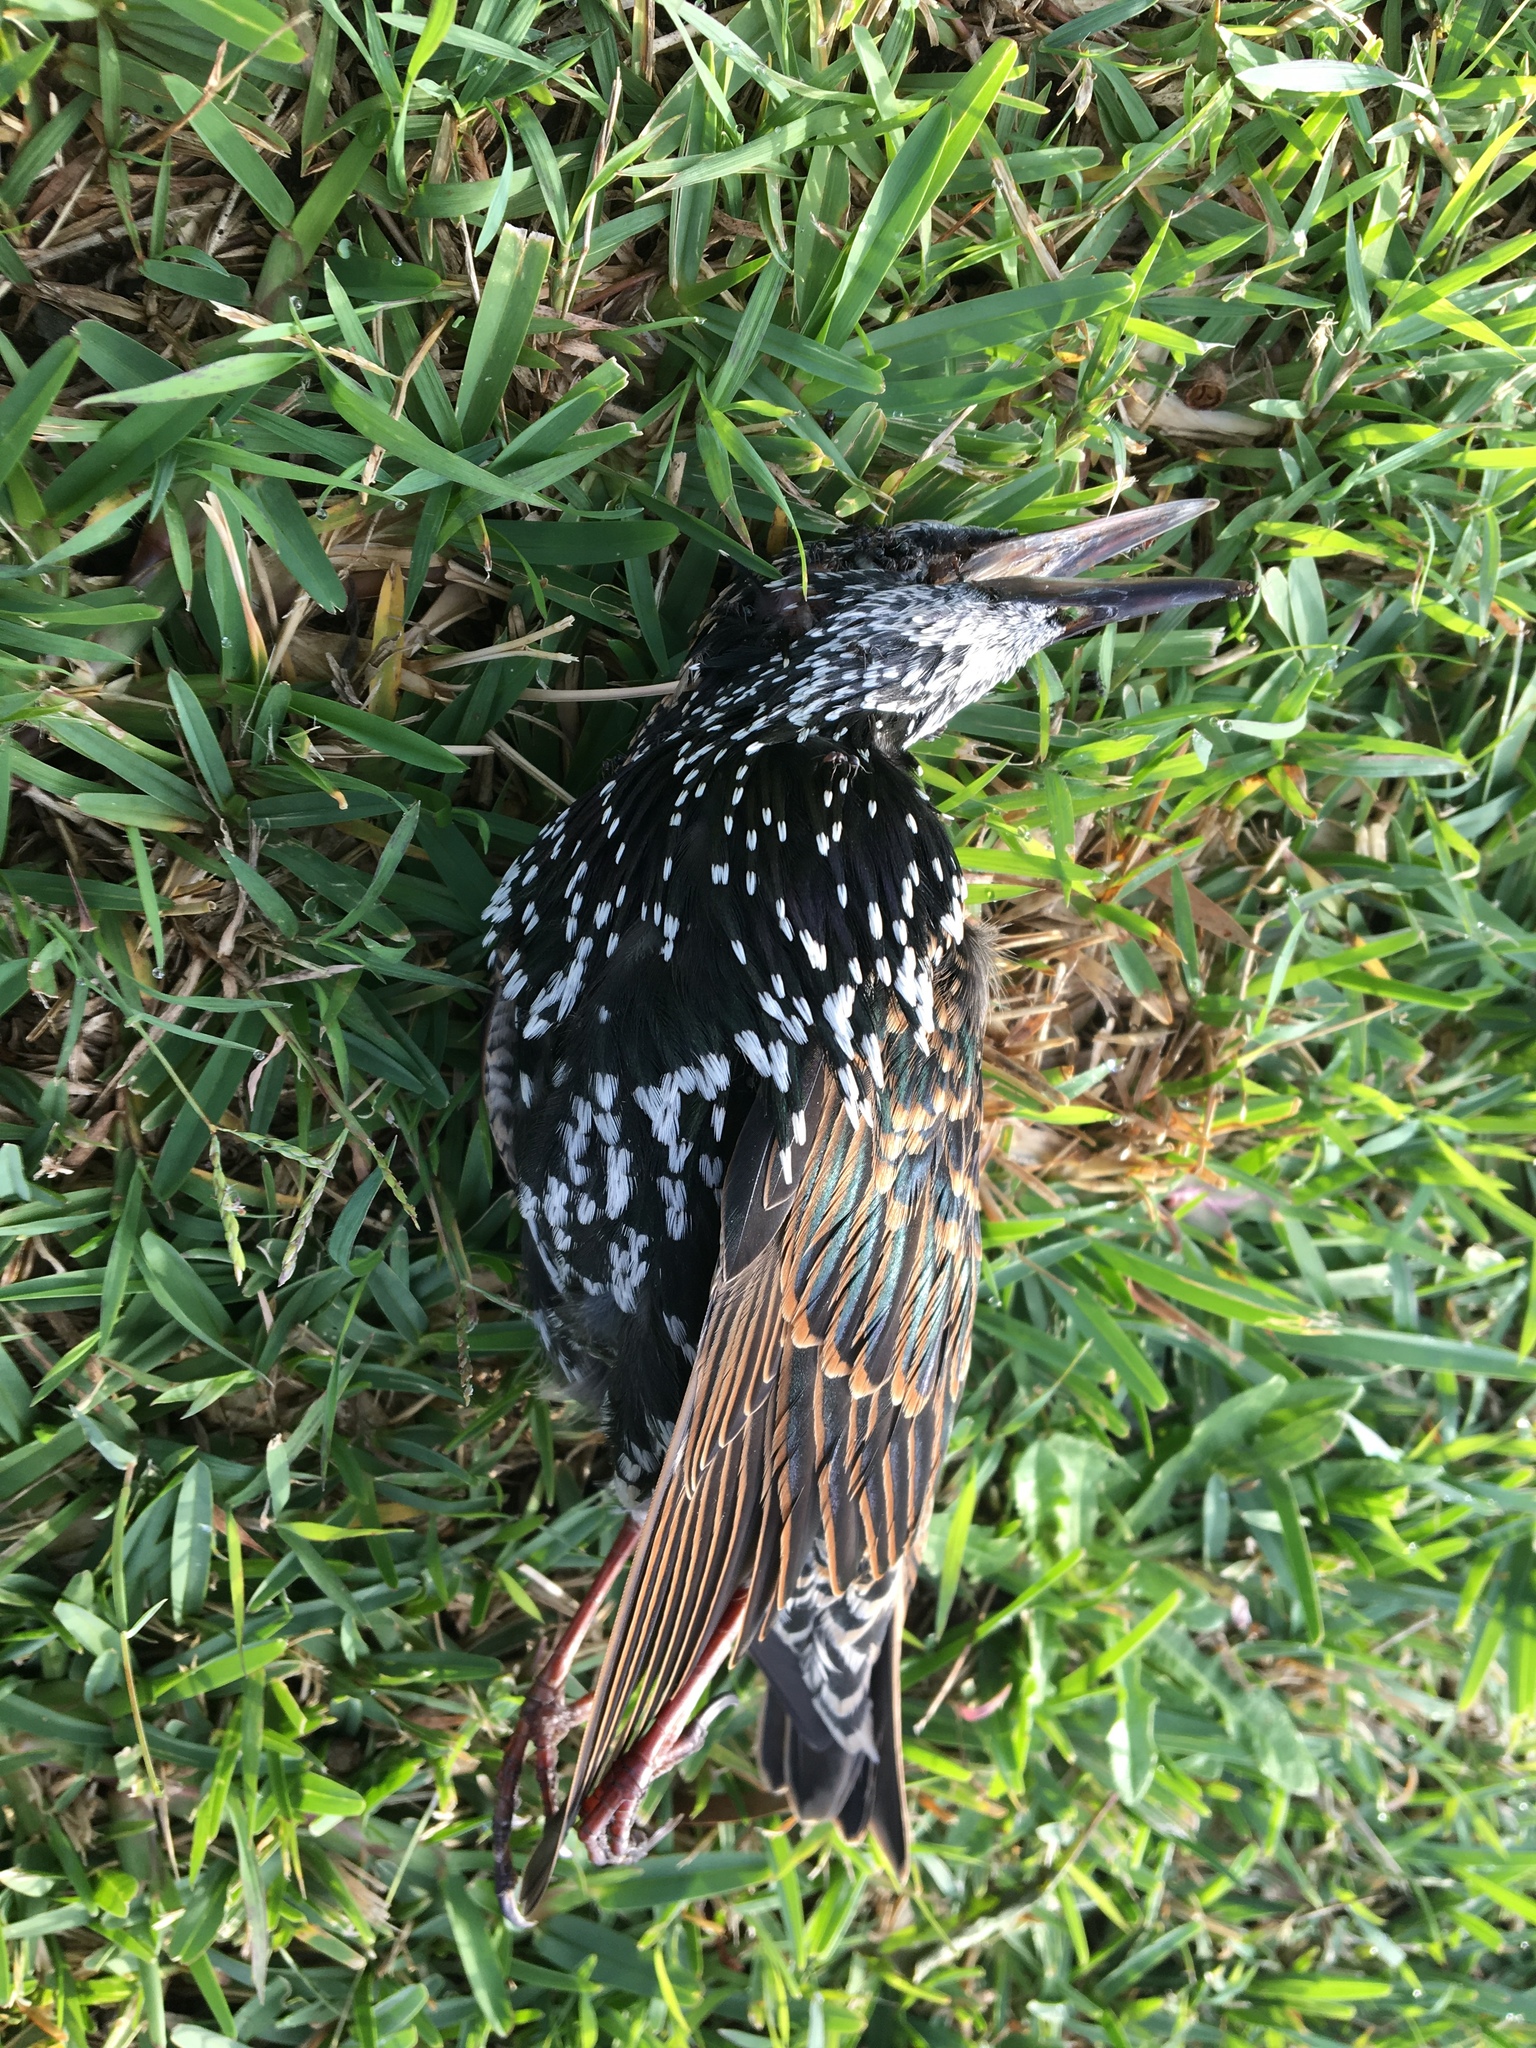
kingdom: Animalia
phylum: Chordata
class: Aves
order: Passeriformes
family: Sturnidae
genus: Sturnus
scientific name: Sturnus vulgaris
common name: Common starling
